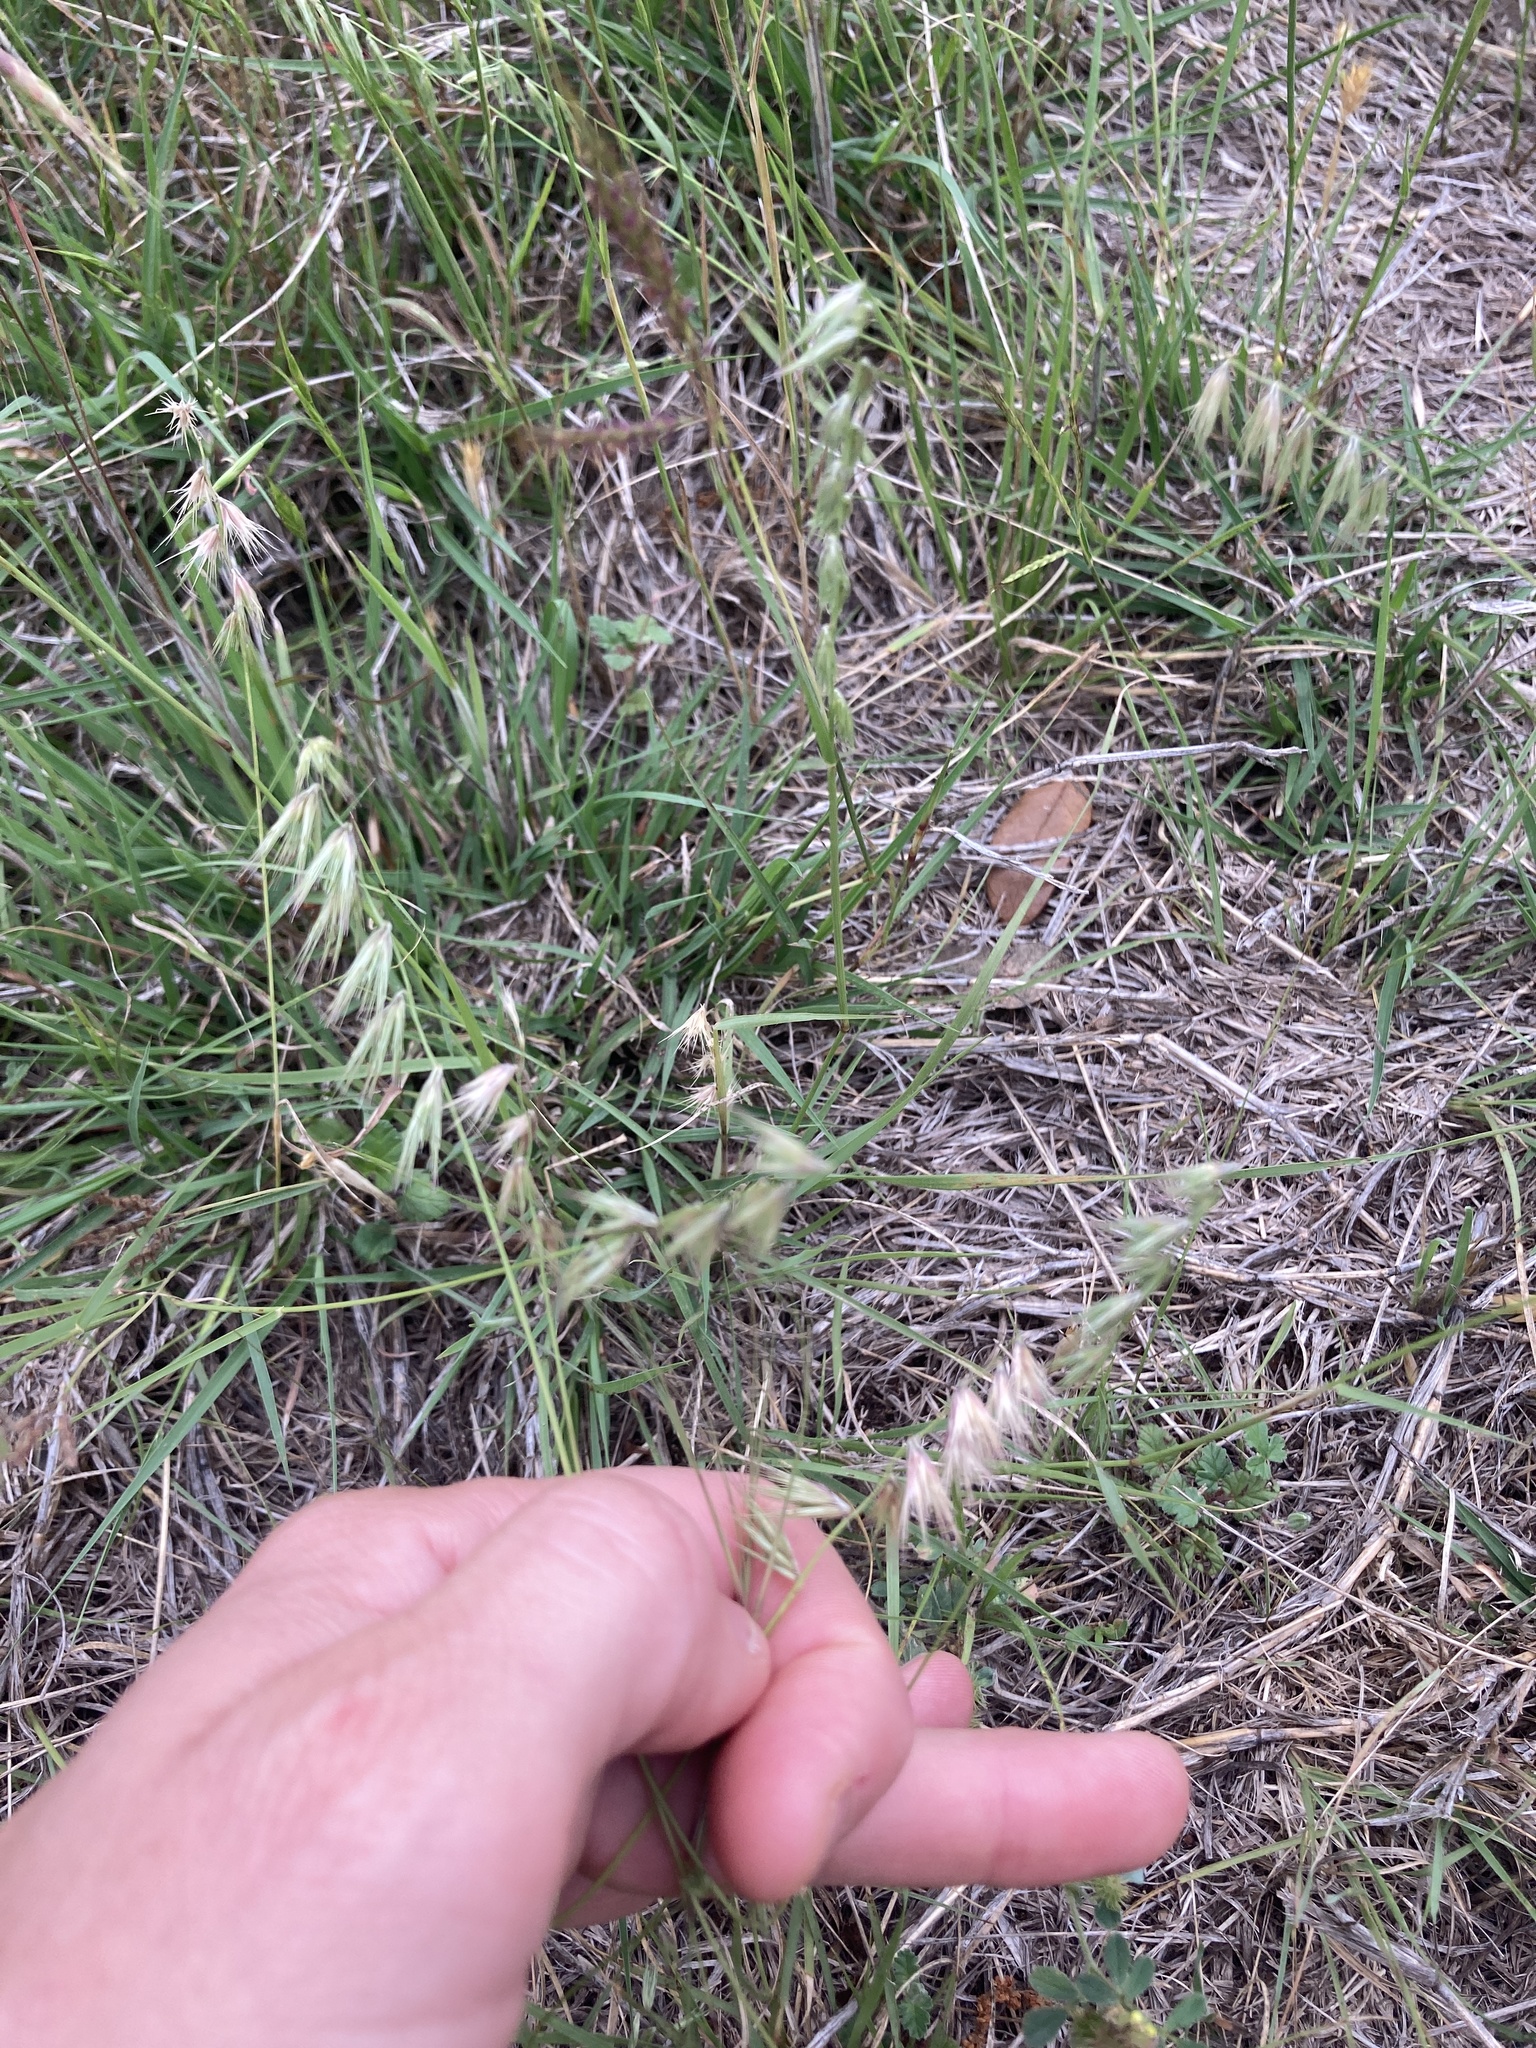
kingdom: Plantae
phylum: Tracheophyta
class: Liliopsida
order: Poales
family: Poaceae
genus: Bouteloua
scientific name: Bouteloua rigidiseta
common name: Texas grama
